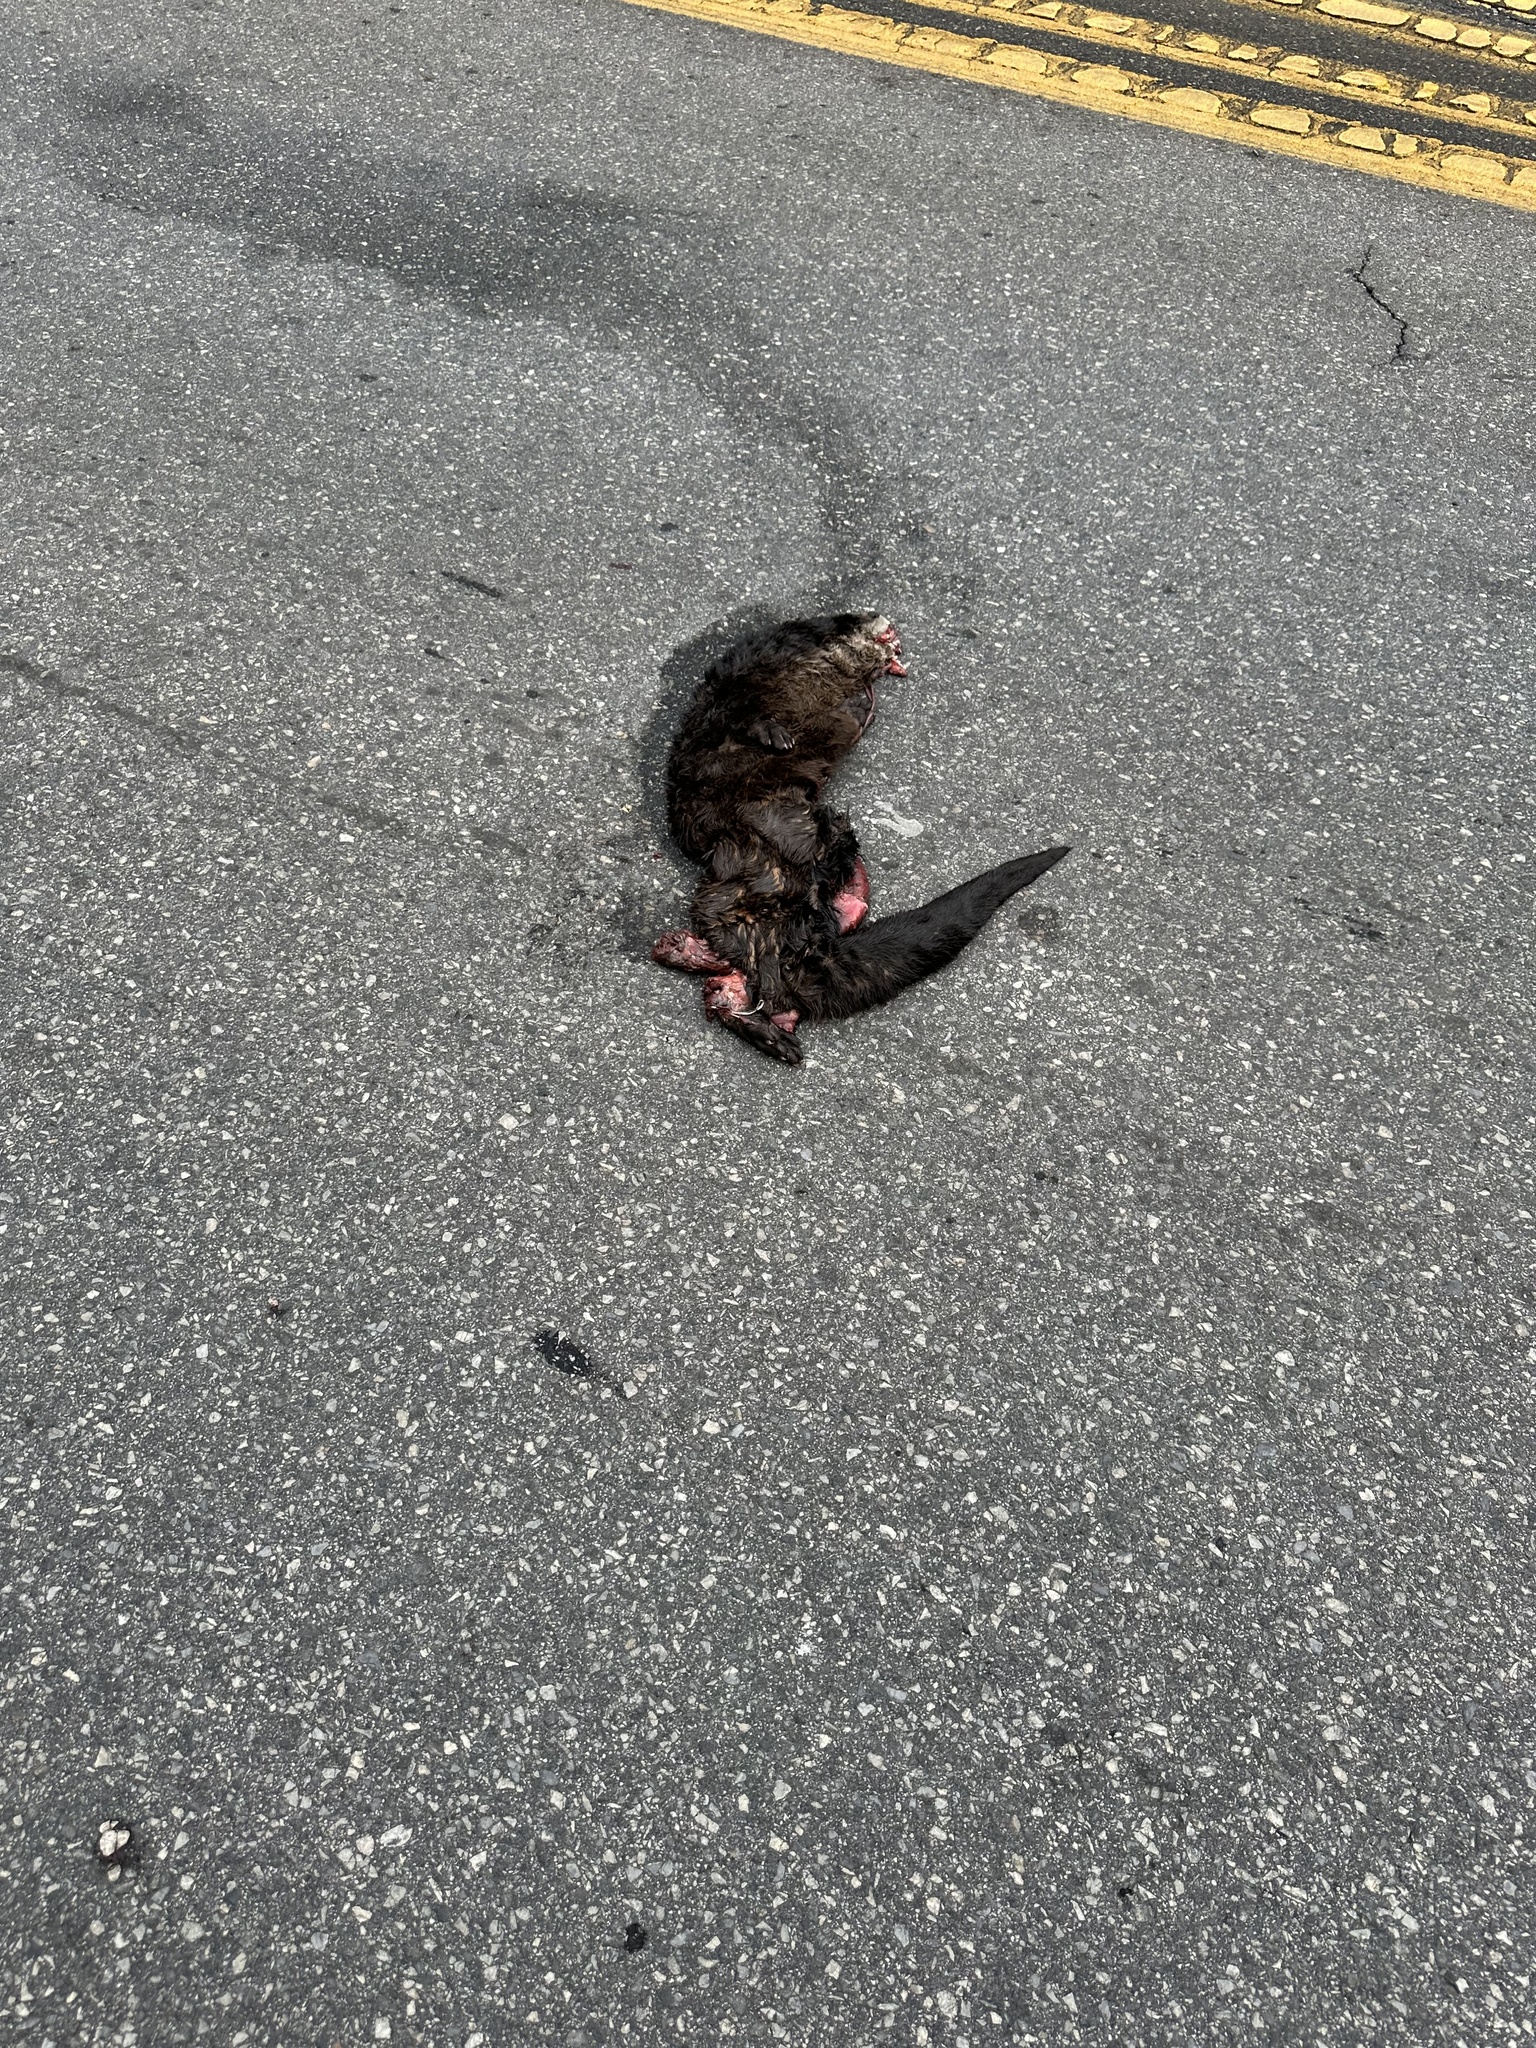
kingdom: Animalia
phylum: Chordata
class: Mammalia
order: Carnivora
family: Mustelidae
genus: Lontra
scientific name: Lontra canadensis
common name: North american river otter
